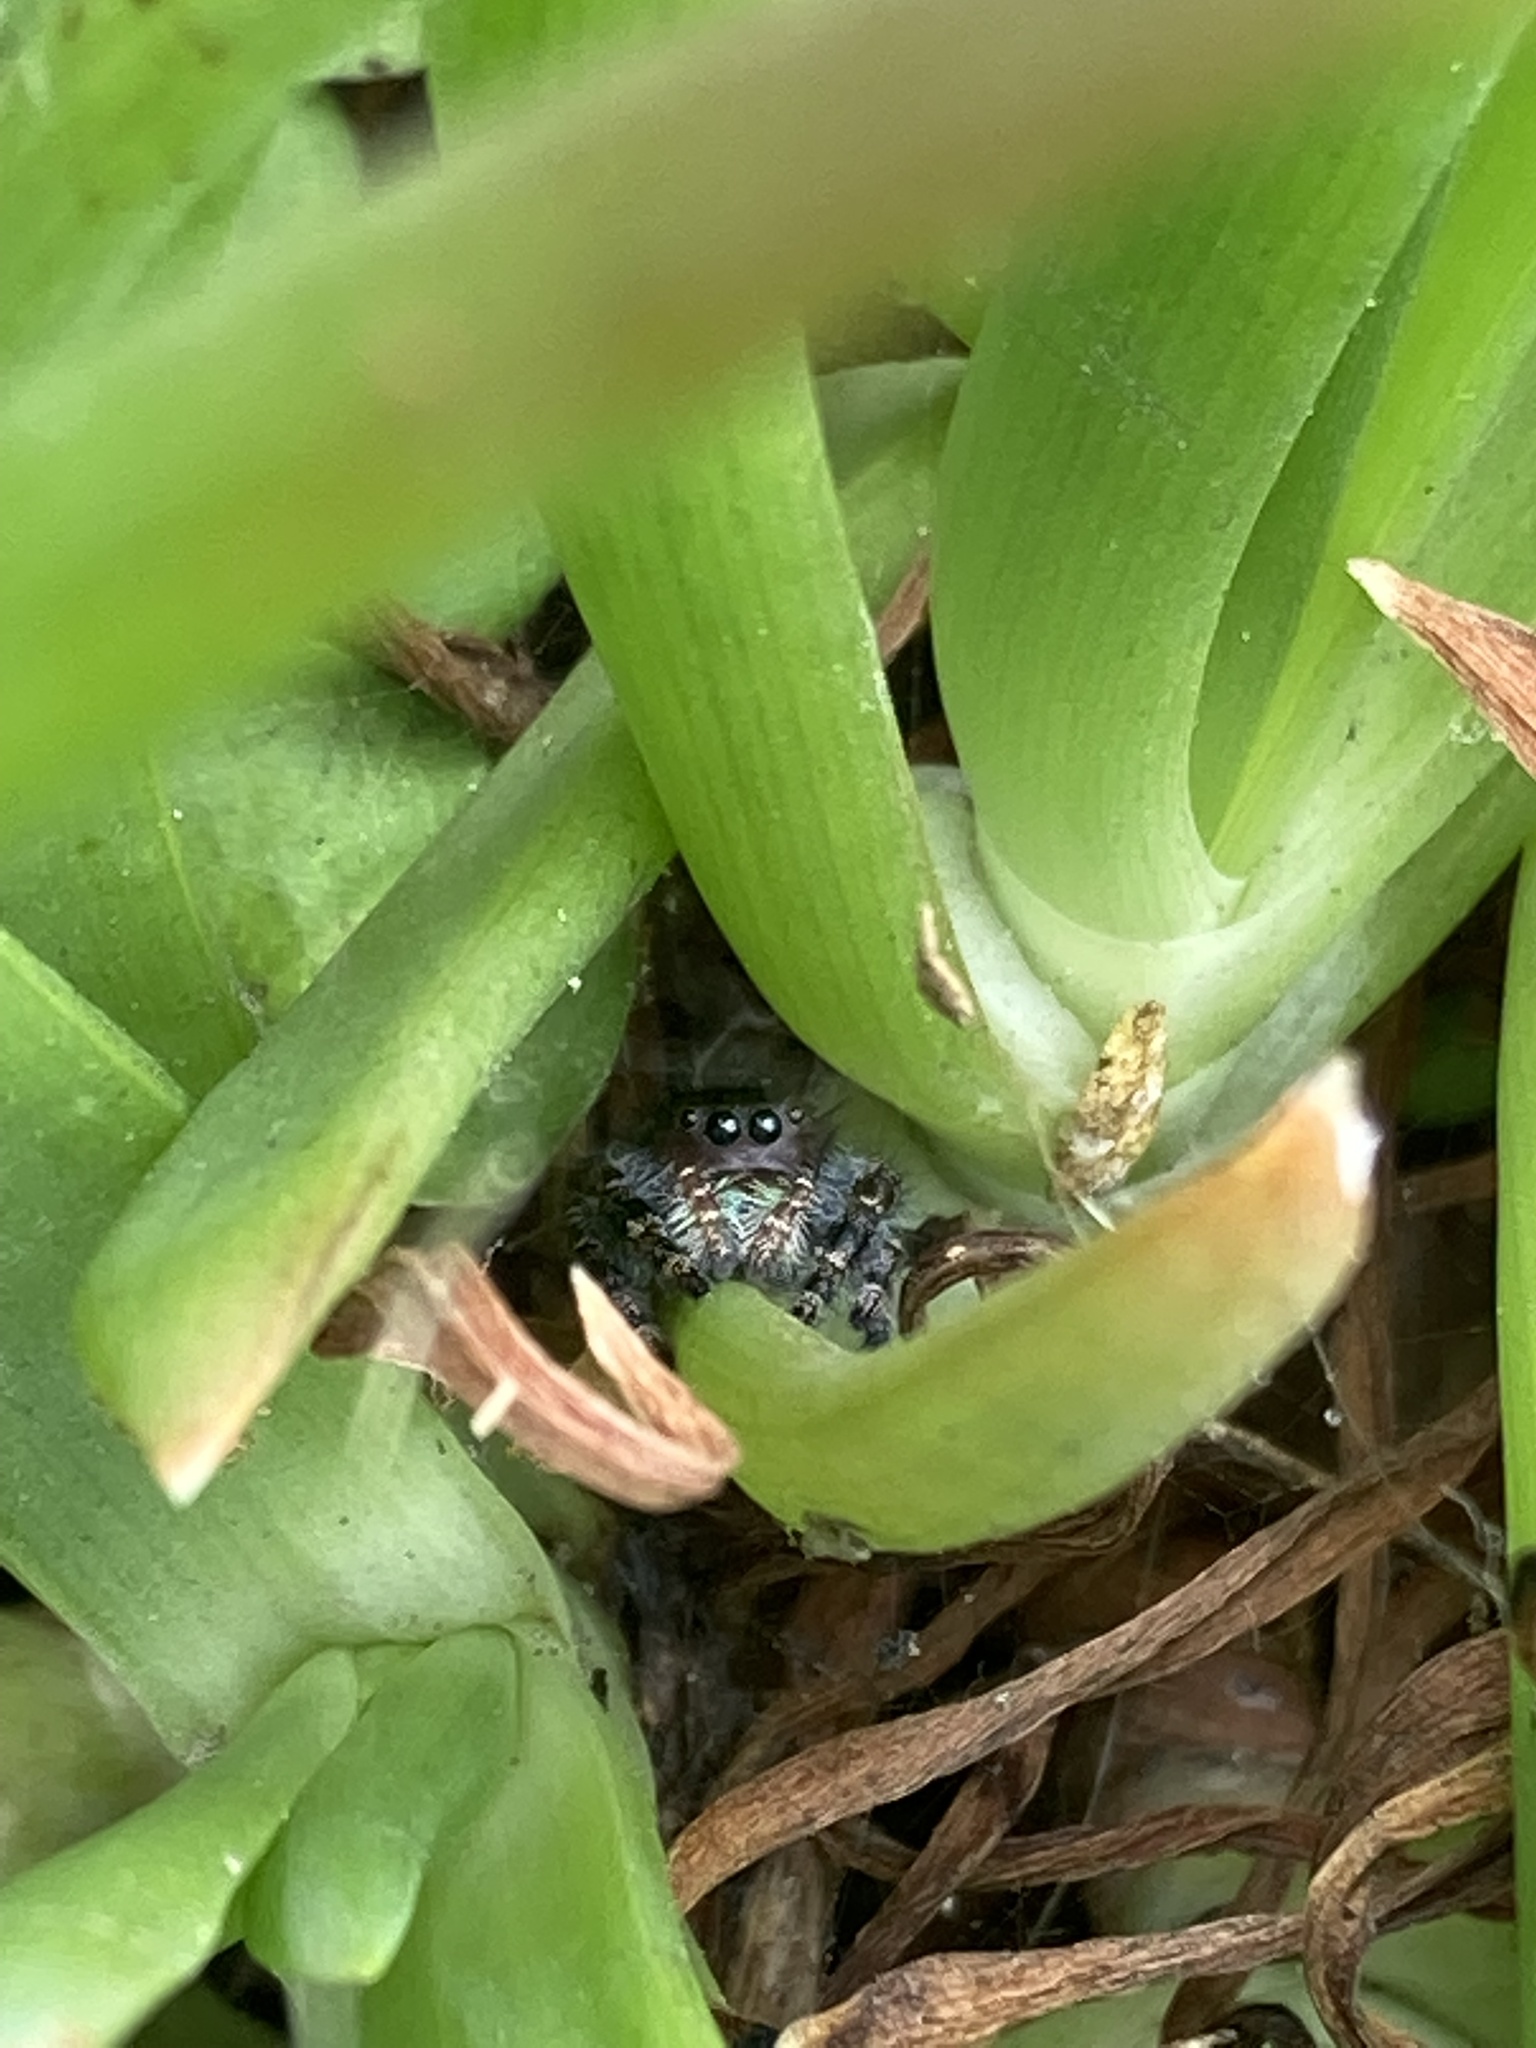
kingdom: Animalia
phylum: Arthropoda
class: Arachnida
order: Araneae
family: Salticidae
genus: Phidippus
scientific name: Phidippus audax
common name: Bold jumper
